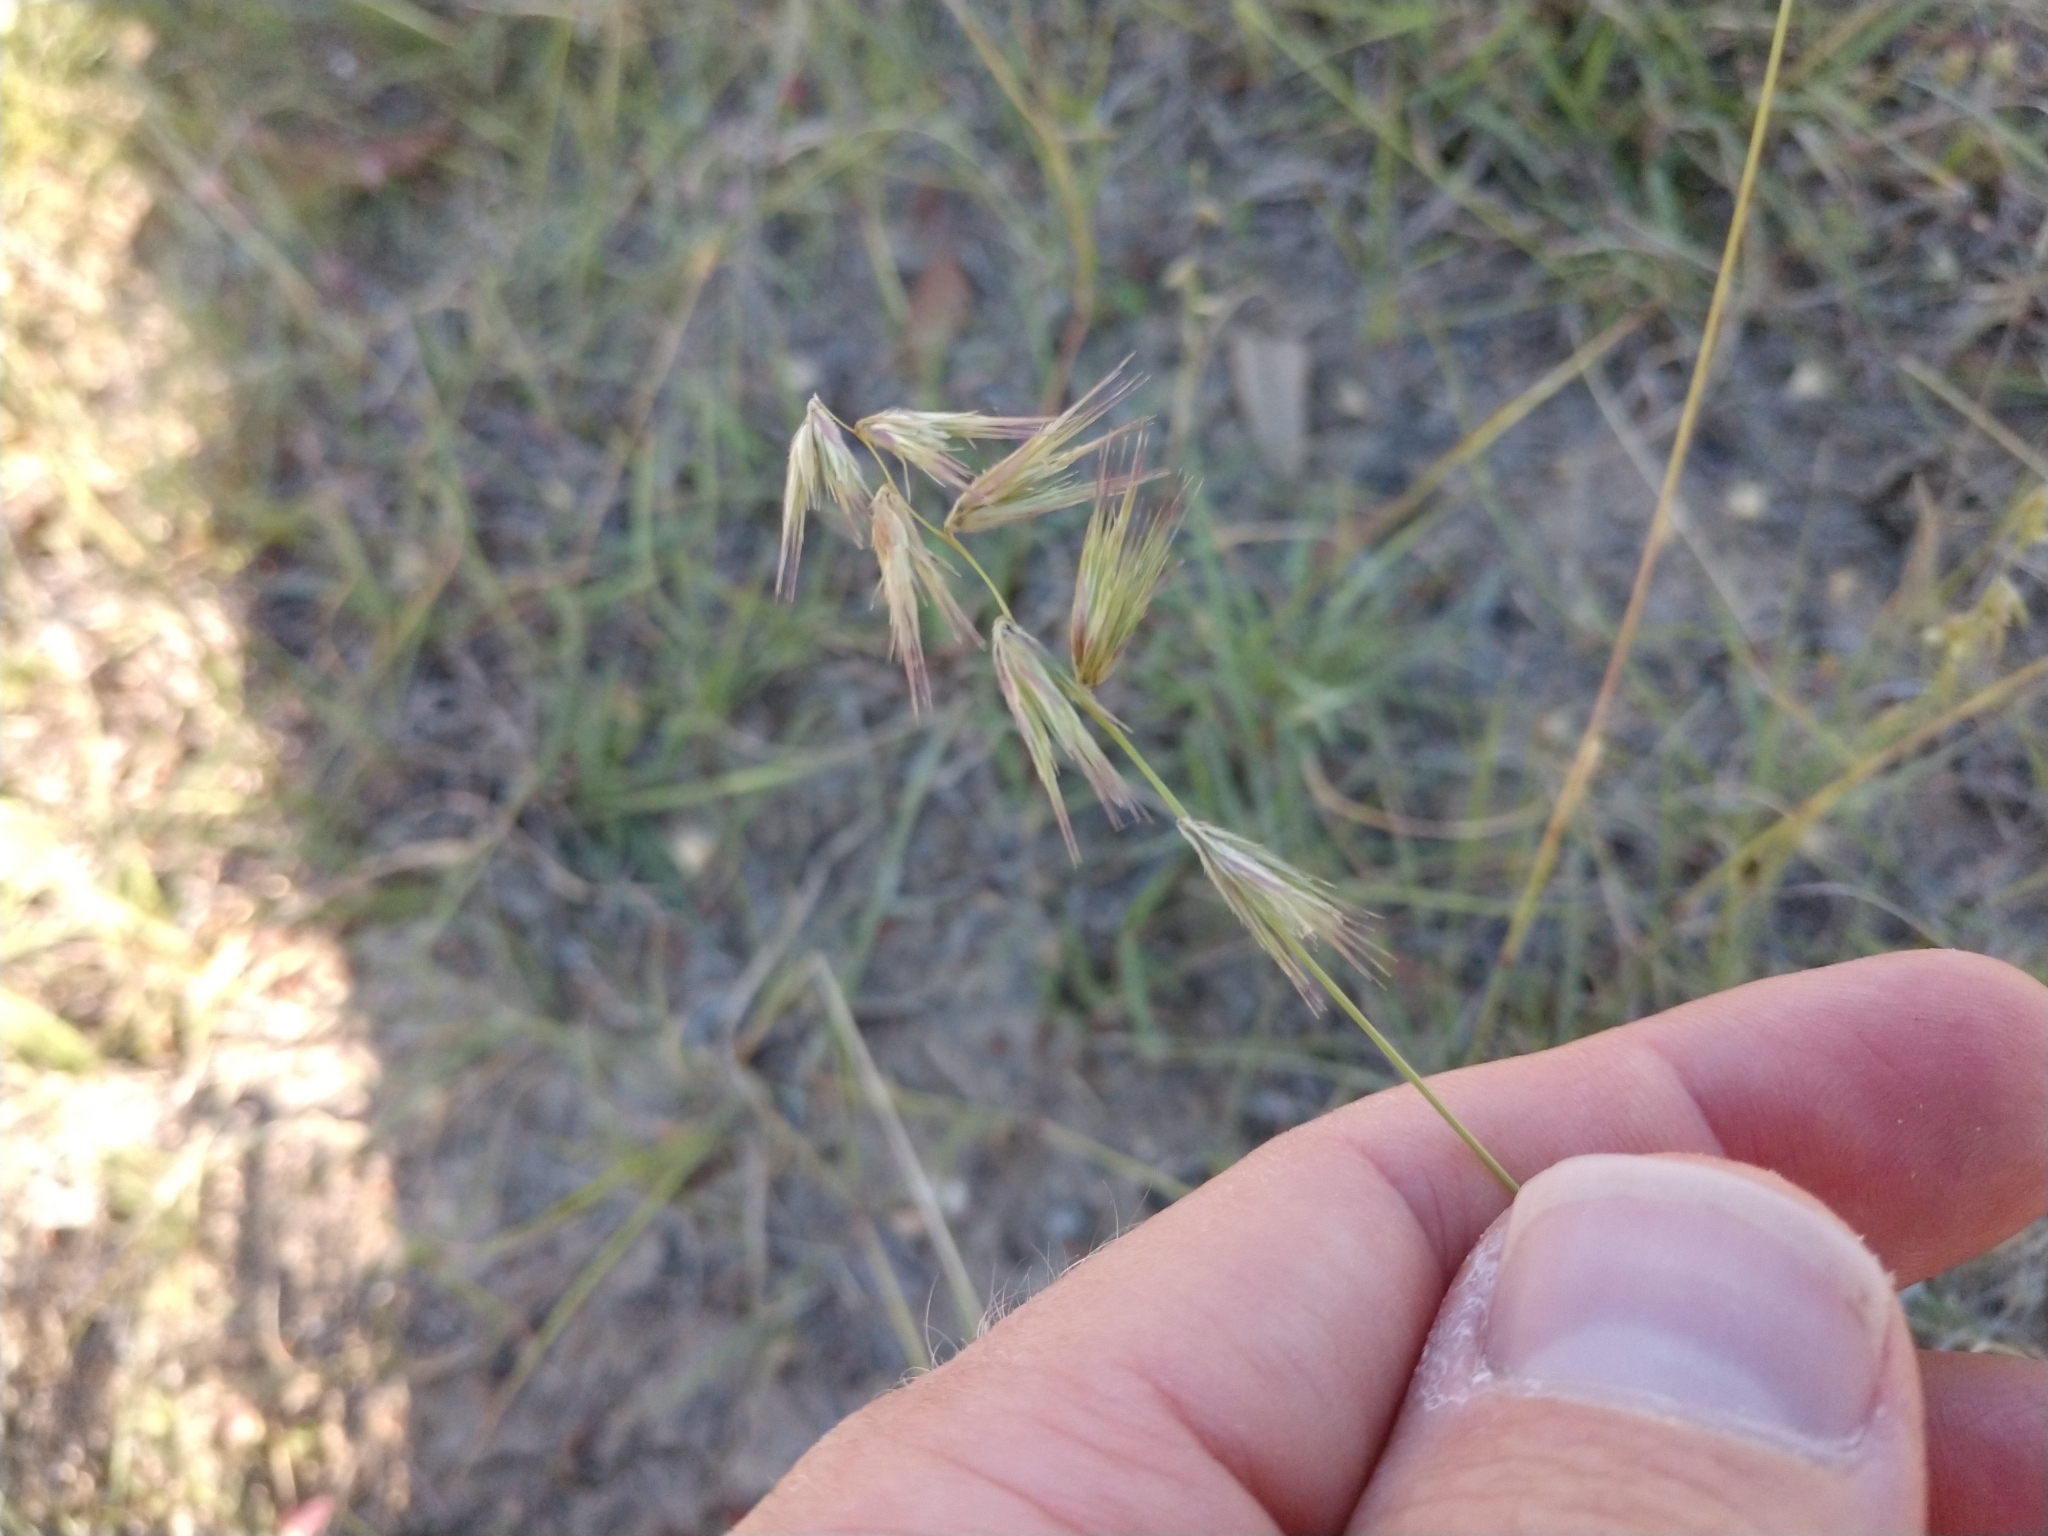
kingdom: Plantae
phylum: Tracheophyta
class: Liliopsida
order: Poales
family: Poaceae
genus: Bouteloua
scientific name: Bouteloua rigidiseta
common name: Texas grama
